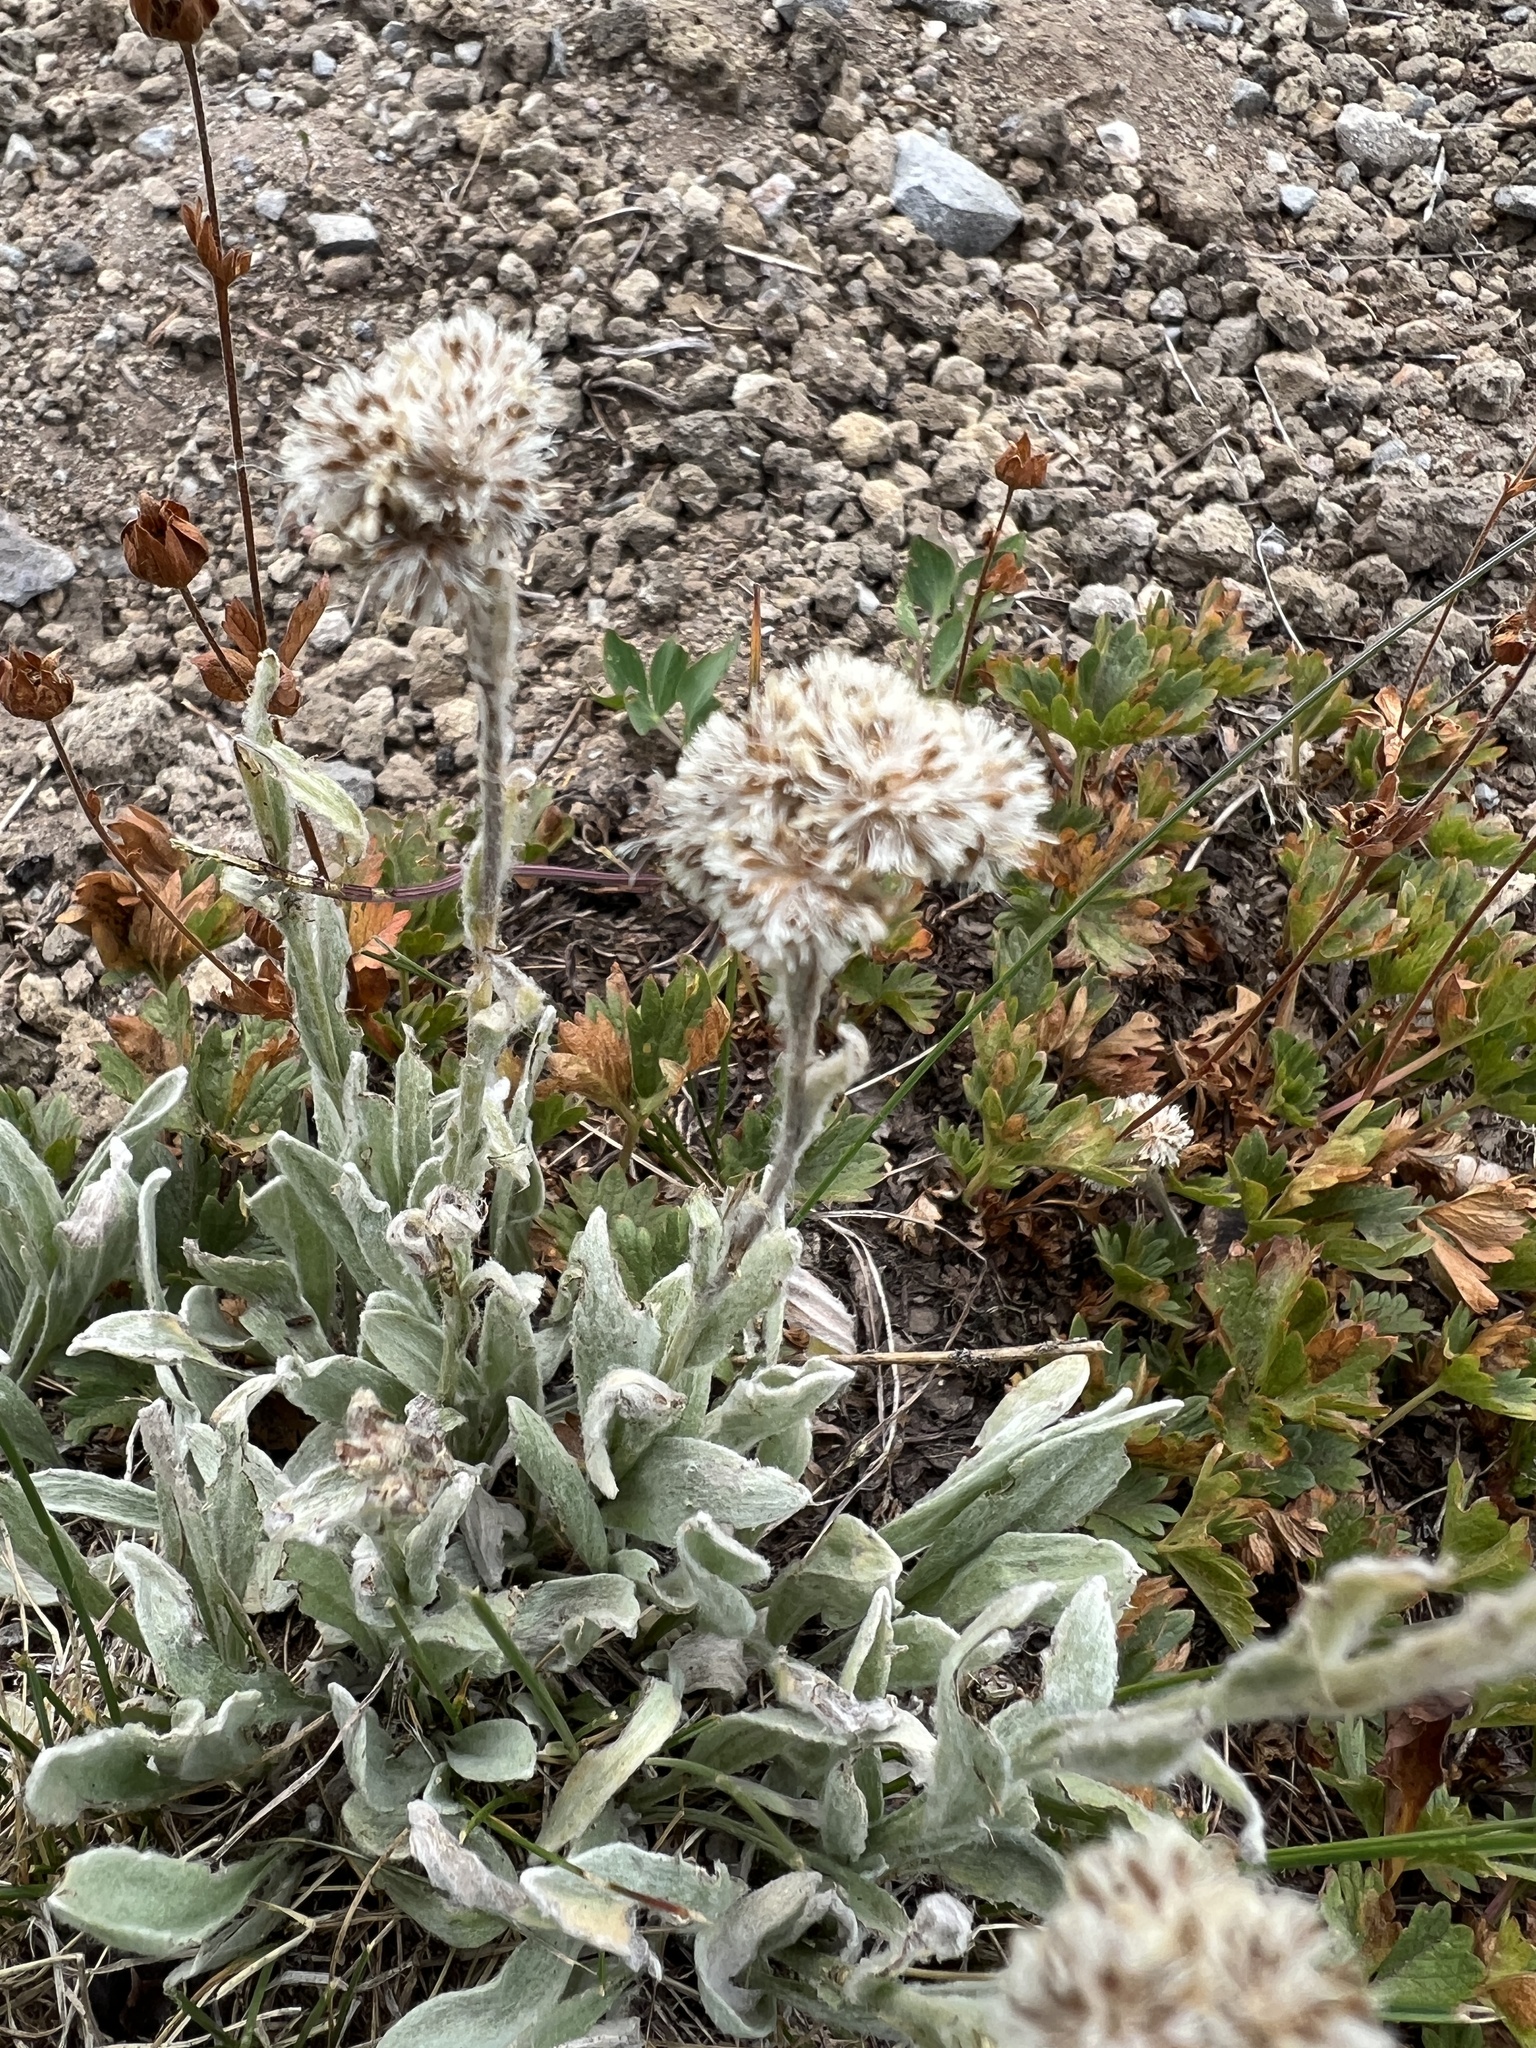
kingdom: Plantae
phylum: Tracheophyta
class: Magnoliopsida
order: Asterales
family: Asteraceae
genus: Antennaria
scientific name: Antennaria lanata
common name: Woolly pussytoes
